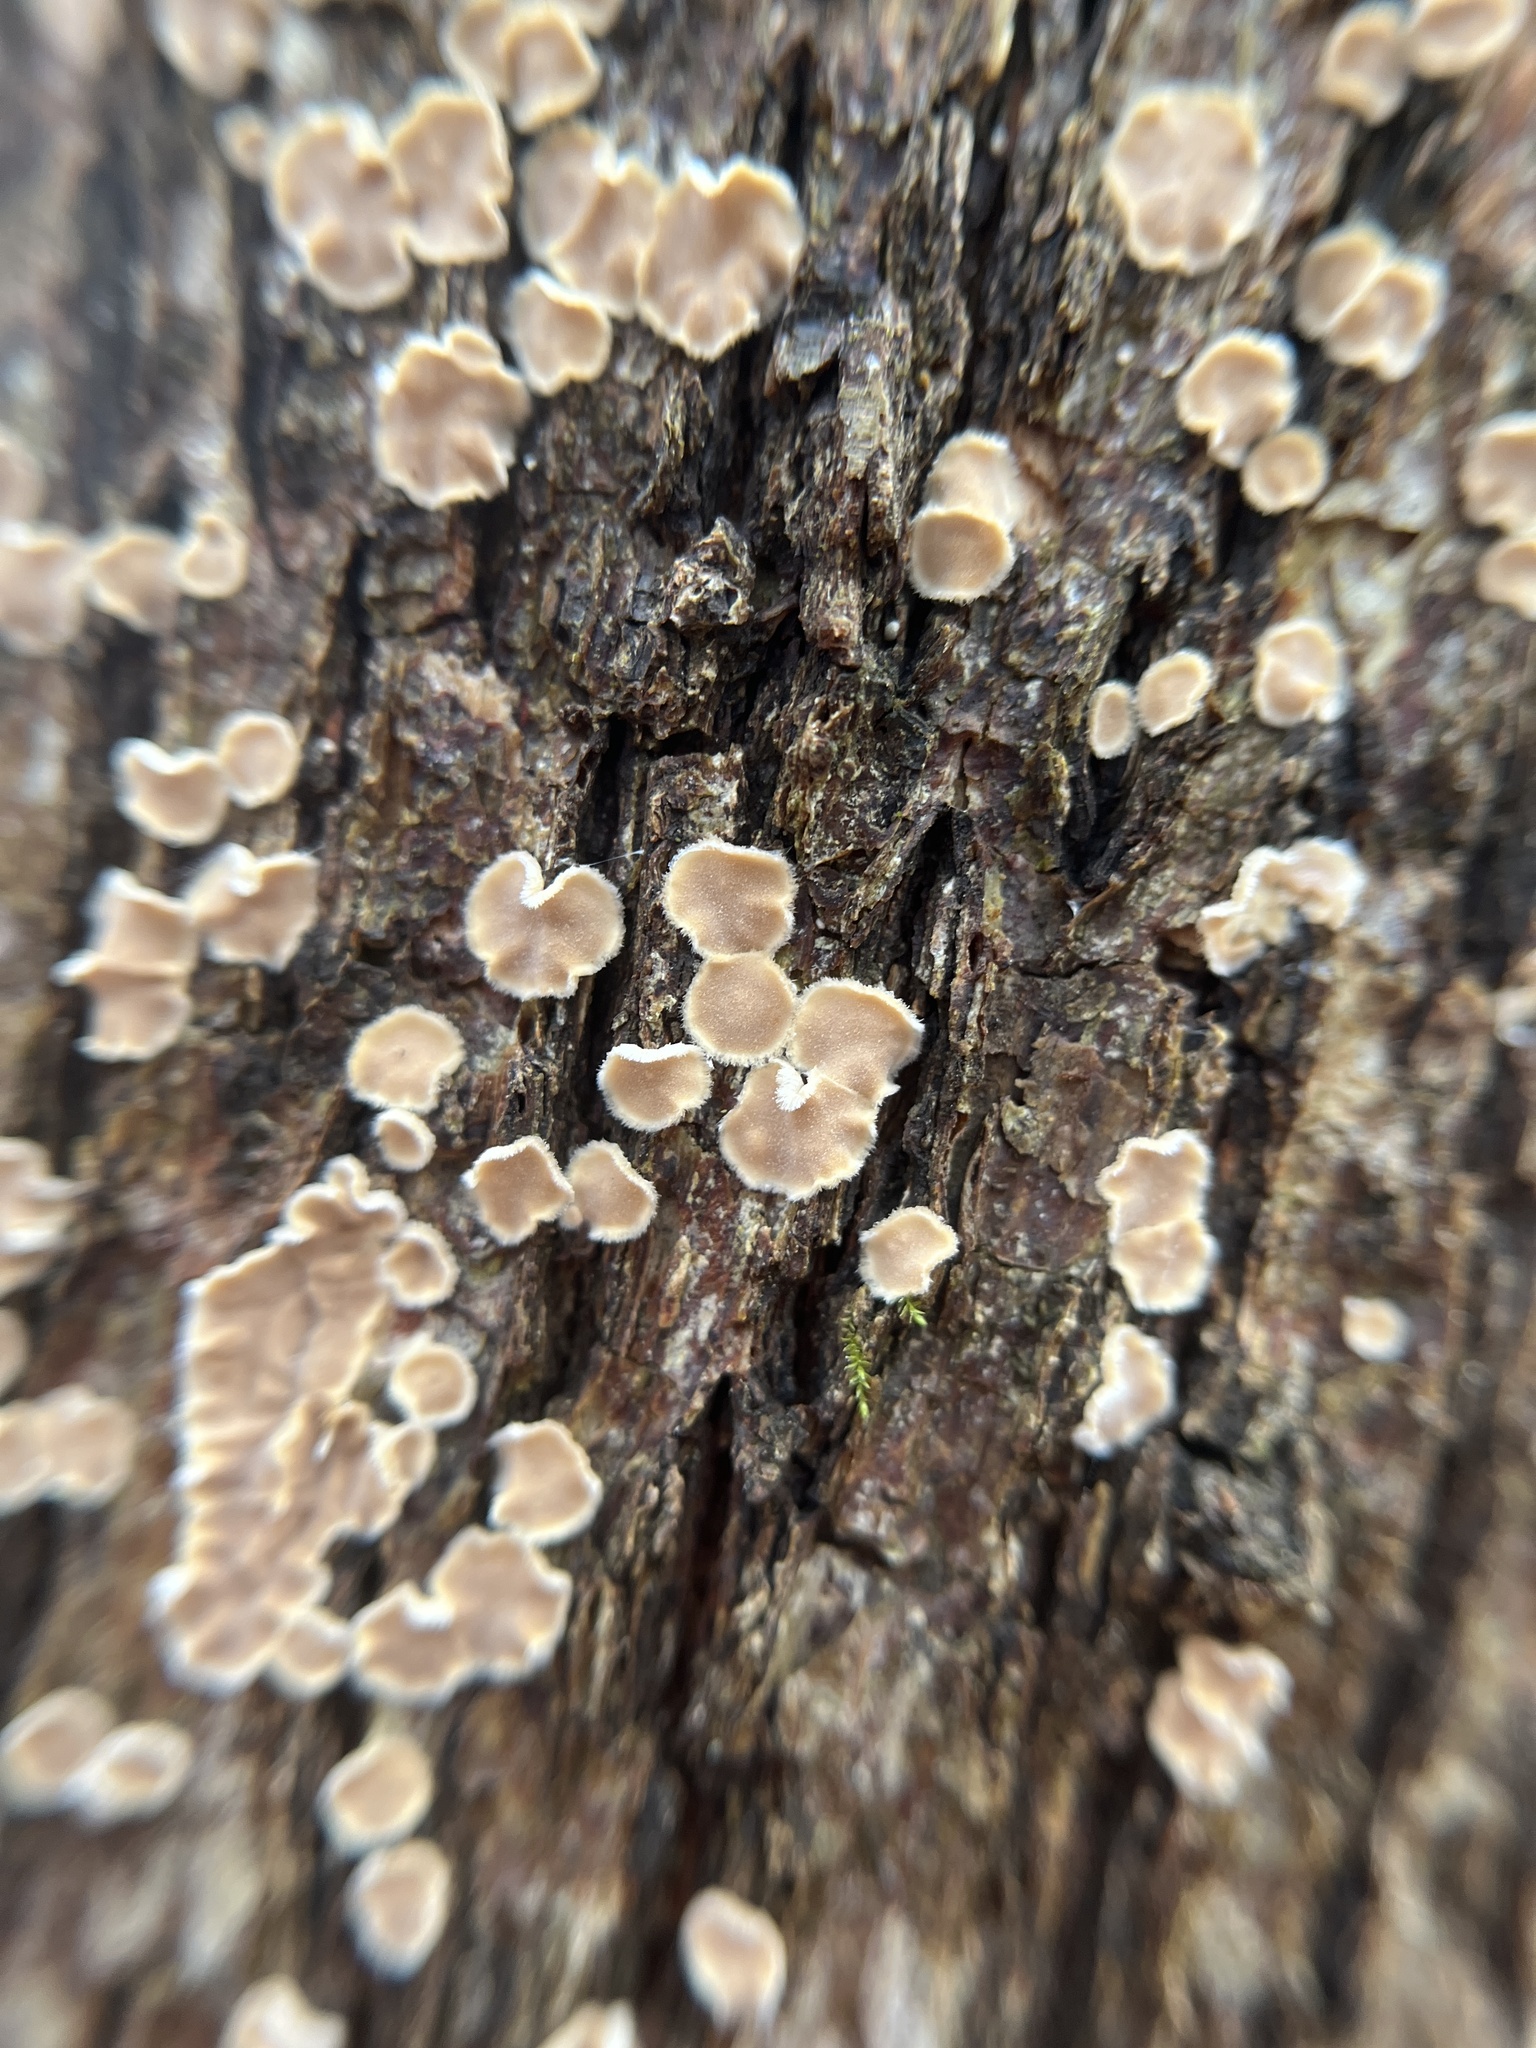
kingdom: Fungi
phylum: Basidiomycota
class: Agaricomycetes
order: Russulales
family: Stereaceae
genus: Acanthophysium
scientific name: Acanthophysium oakesii
